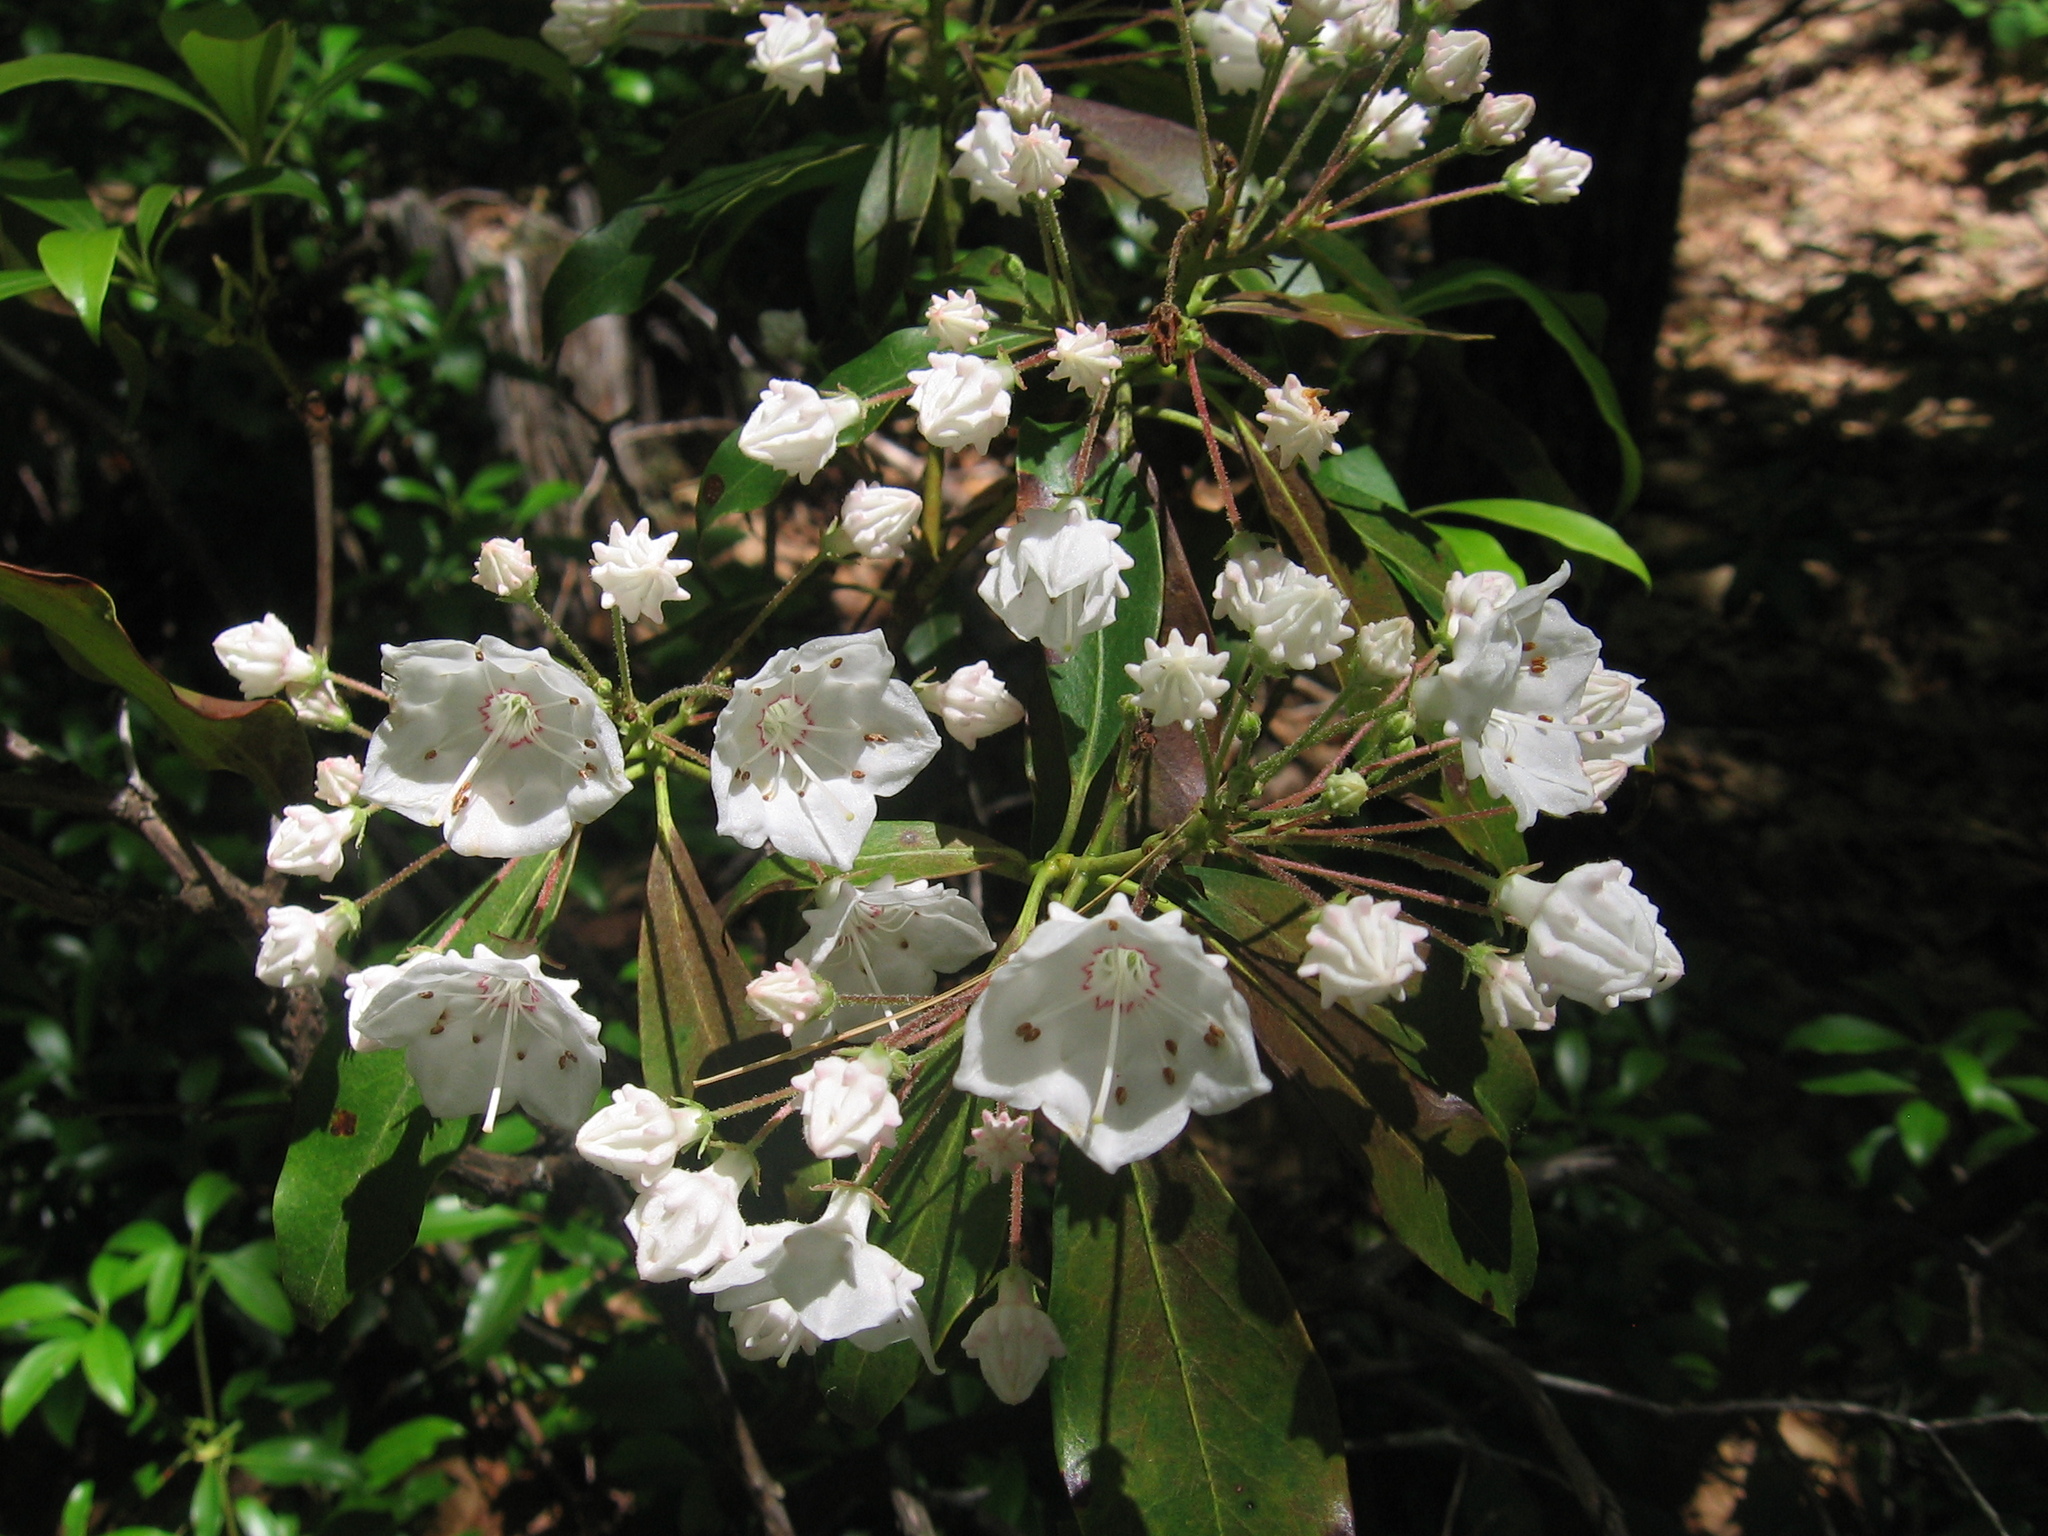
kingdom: Plantae
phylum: Tracheophyta
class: Magnoliopsida
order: Ericales
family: Ericaceae
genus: Kalmia
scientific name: Kalmia latifolia
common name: Mountain-laurel
